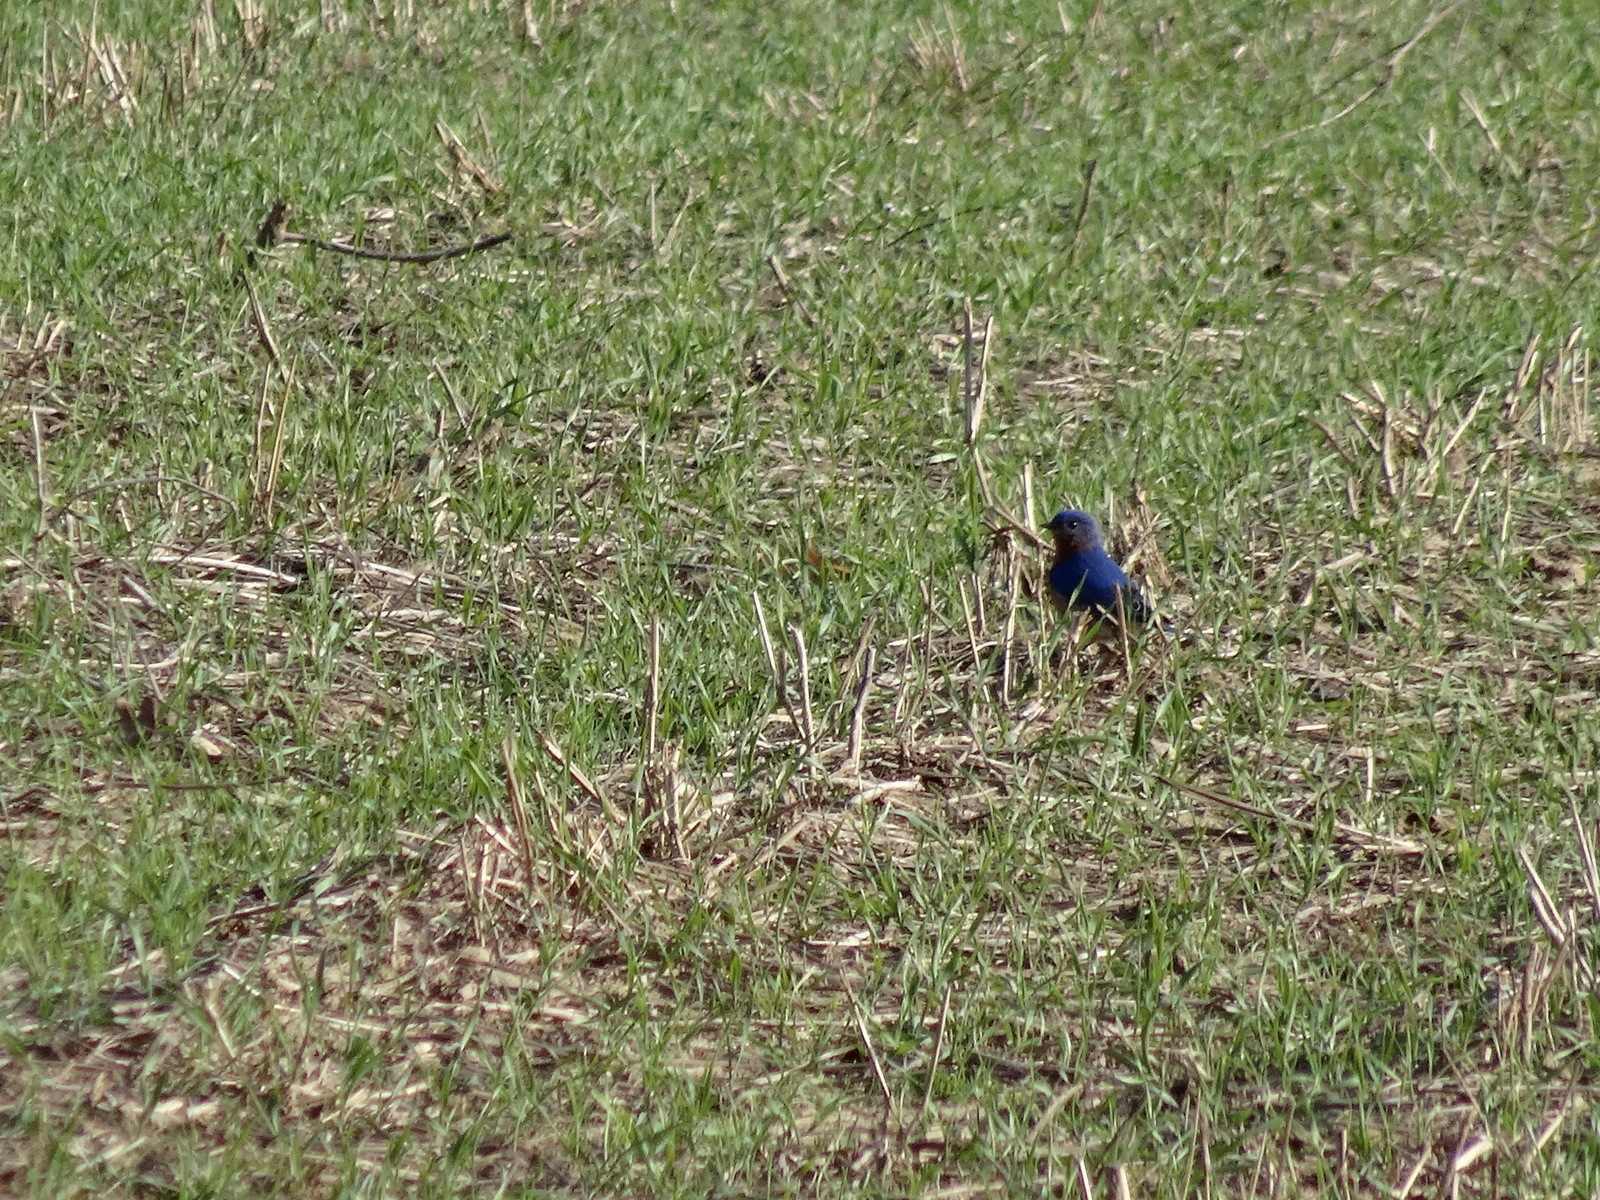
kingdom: Animalia
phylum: Chordata
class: Aves
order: Passeriformes
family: Turdidae
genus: Sialia
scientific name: Sialia sialis
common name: Eastern bluebird
